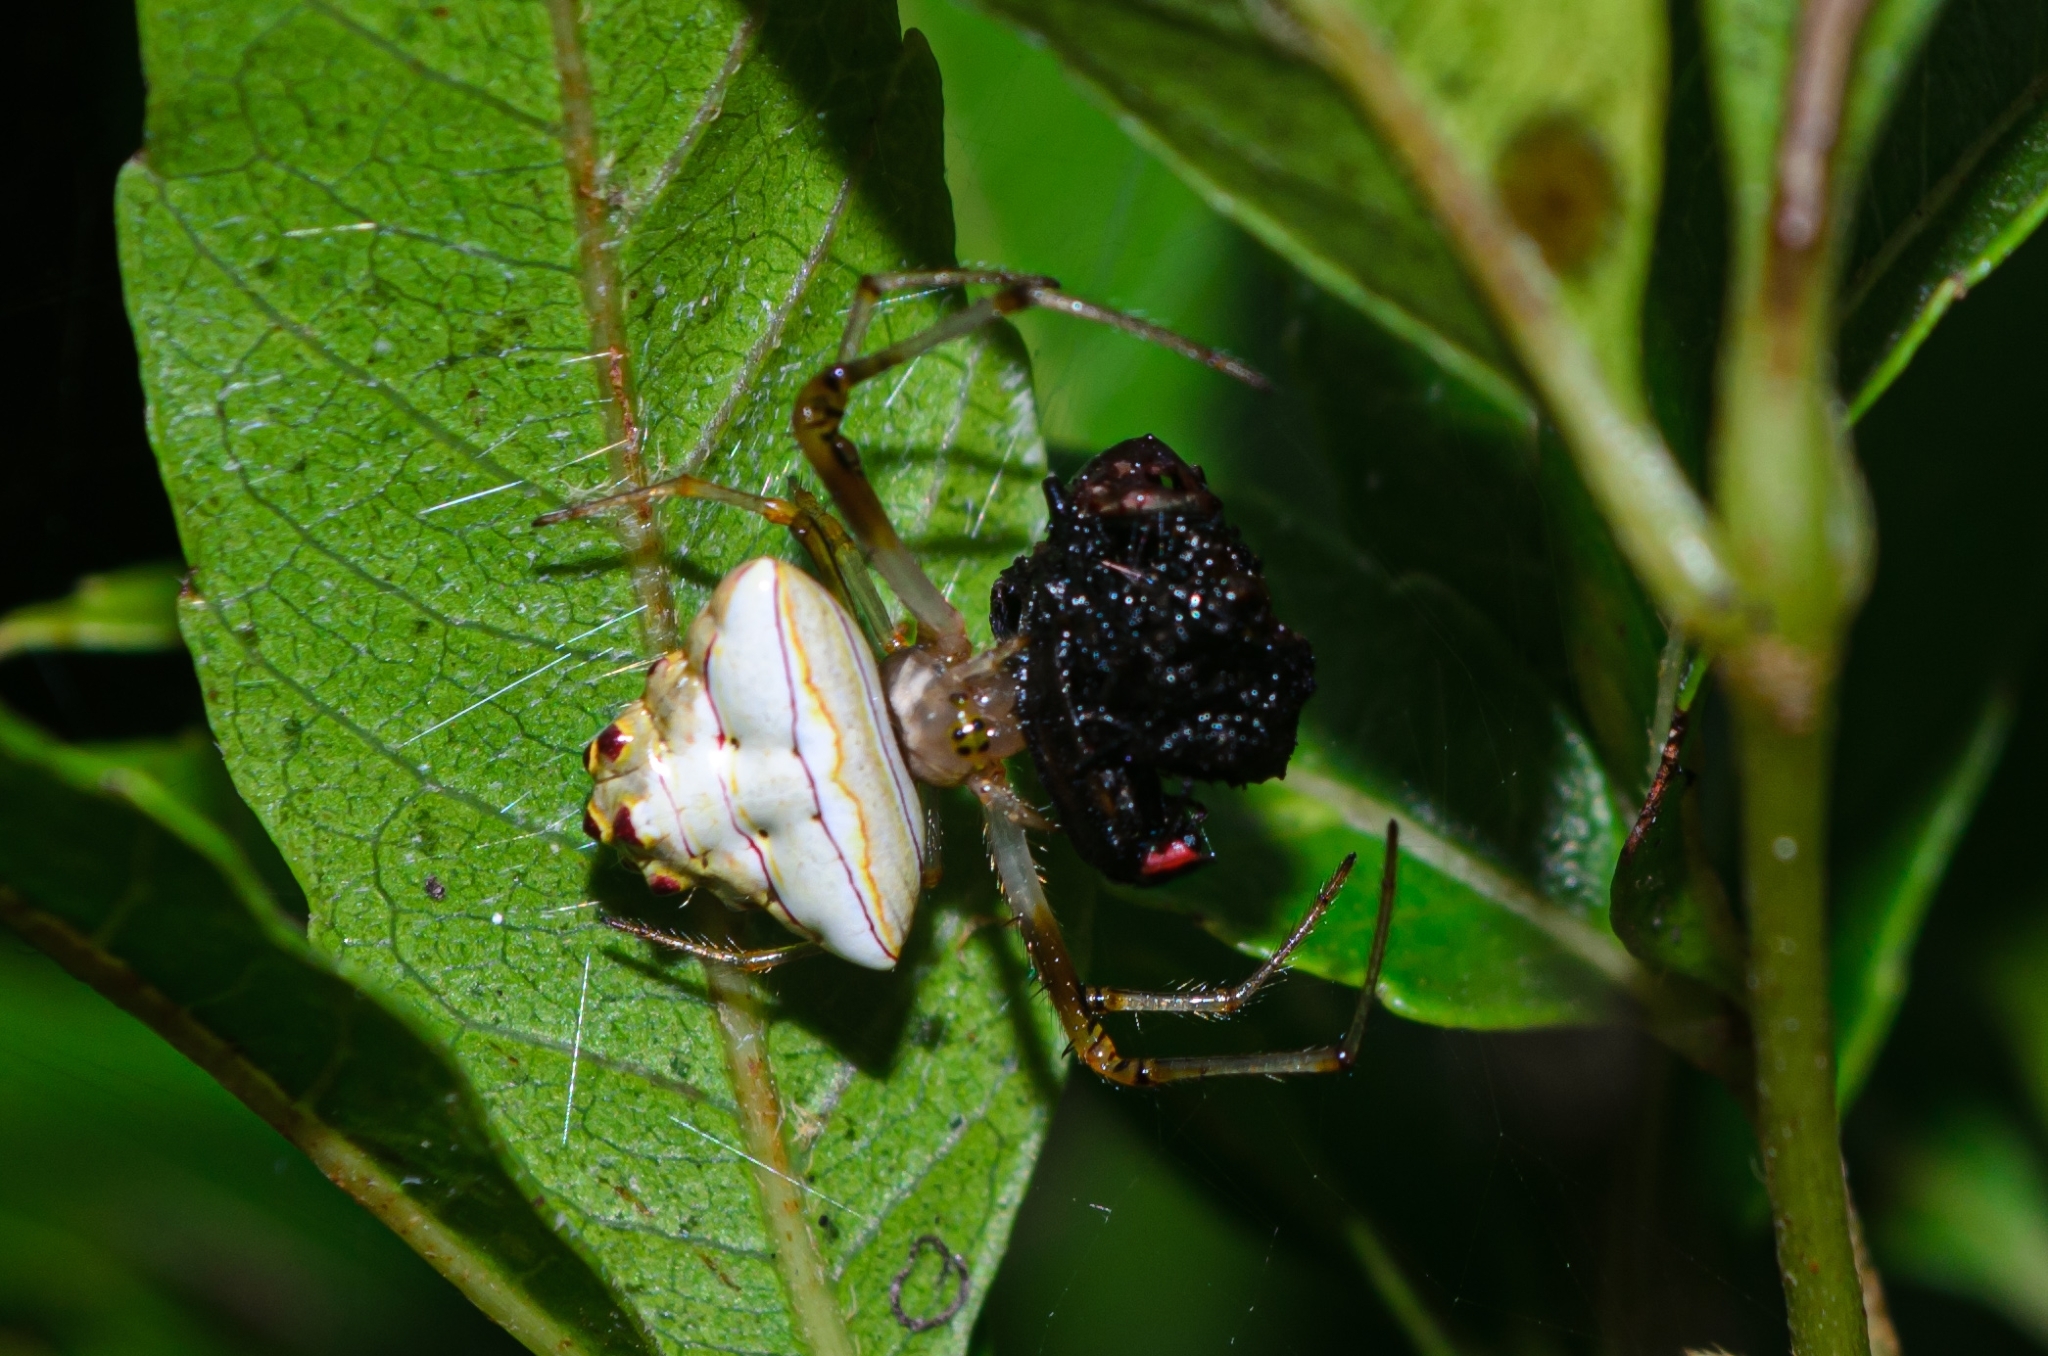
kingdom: Animalia
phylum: Arthropoda
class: Arachnida
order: Araneae
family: Araneidae
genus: Verrucosa
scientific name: Verrucosa undecimvariolata
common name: Orb weavers
